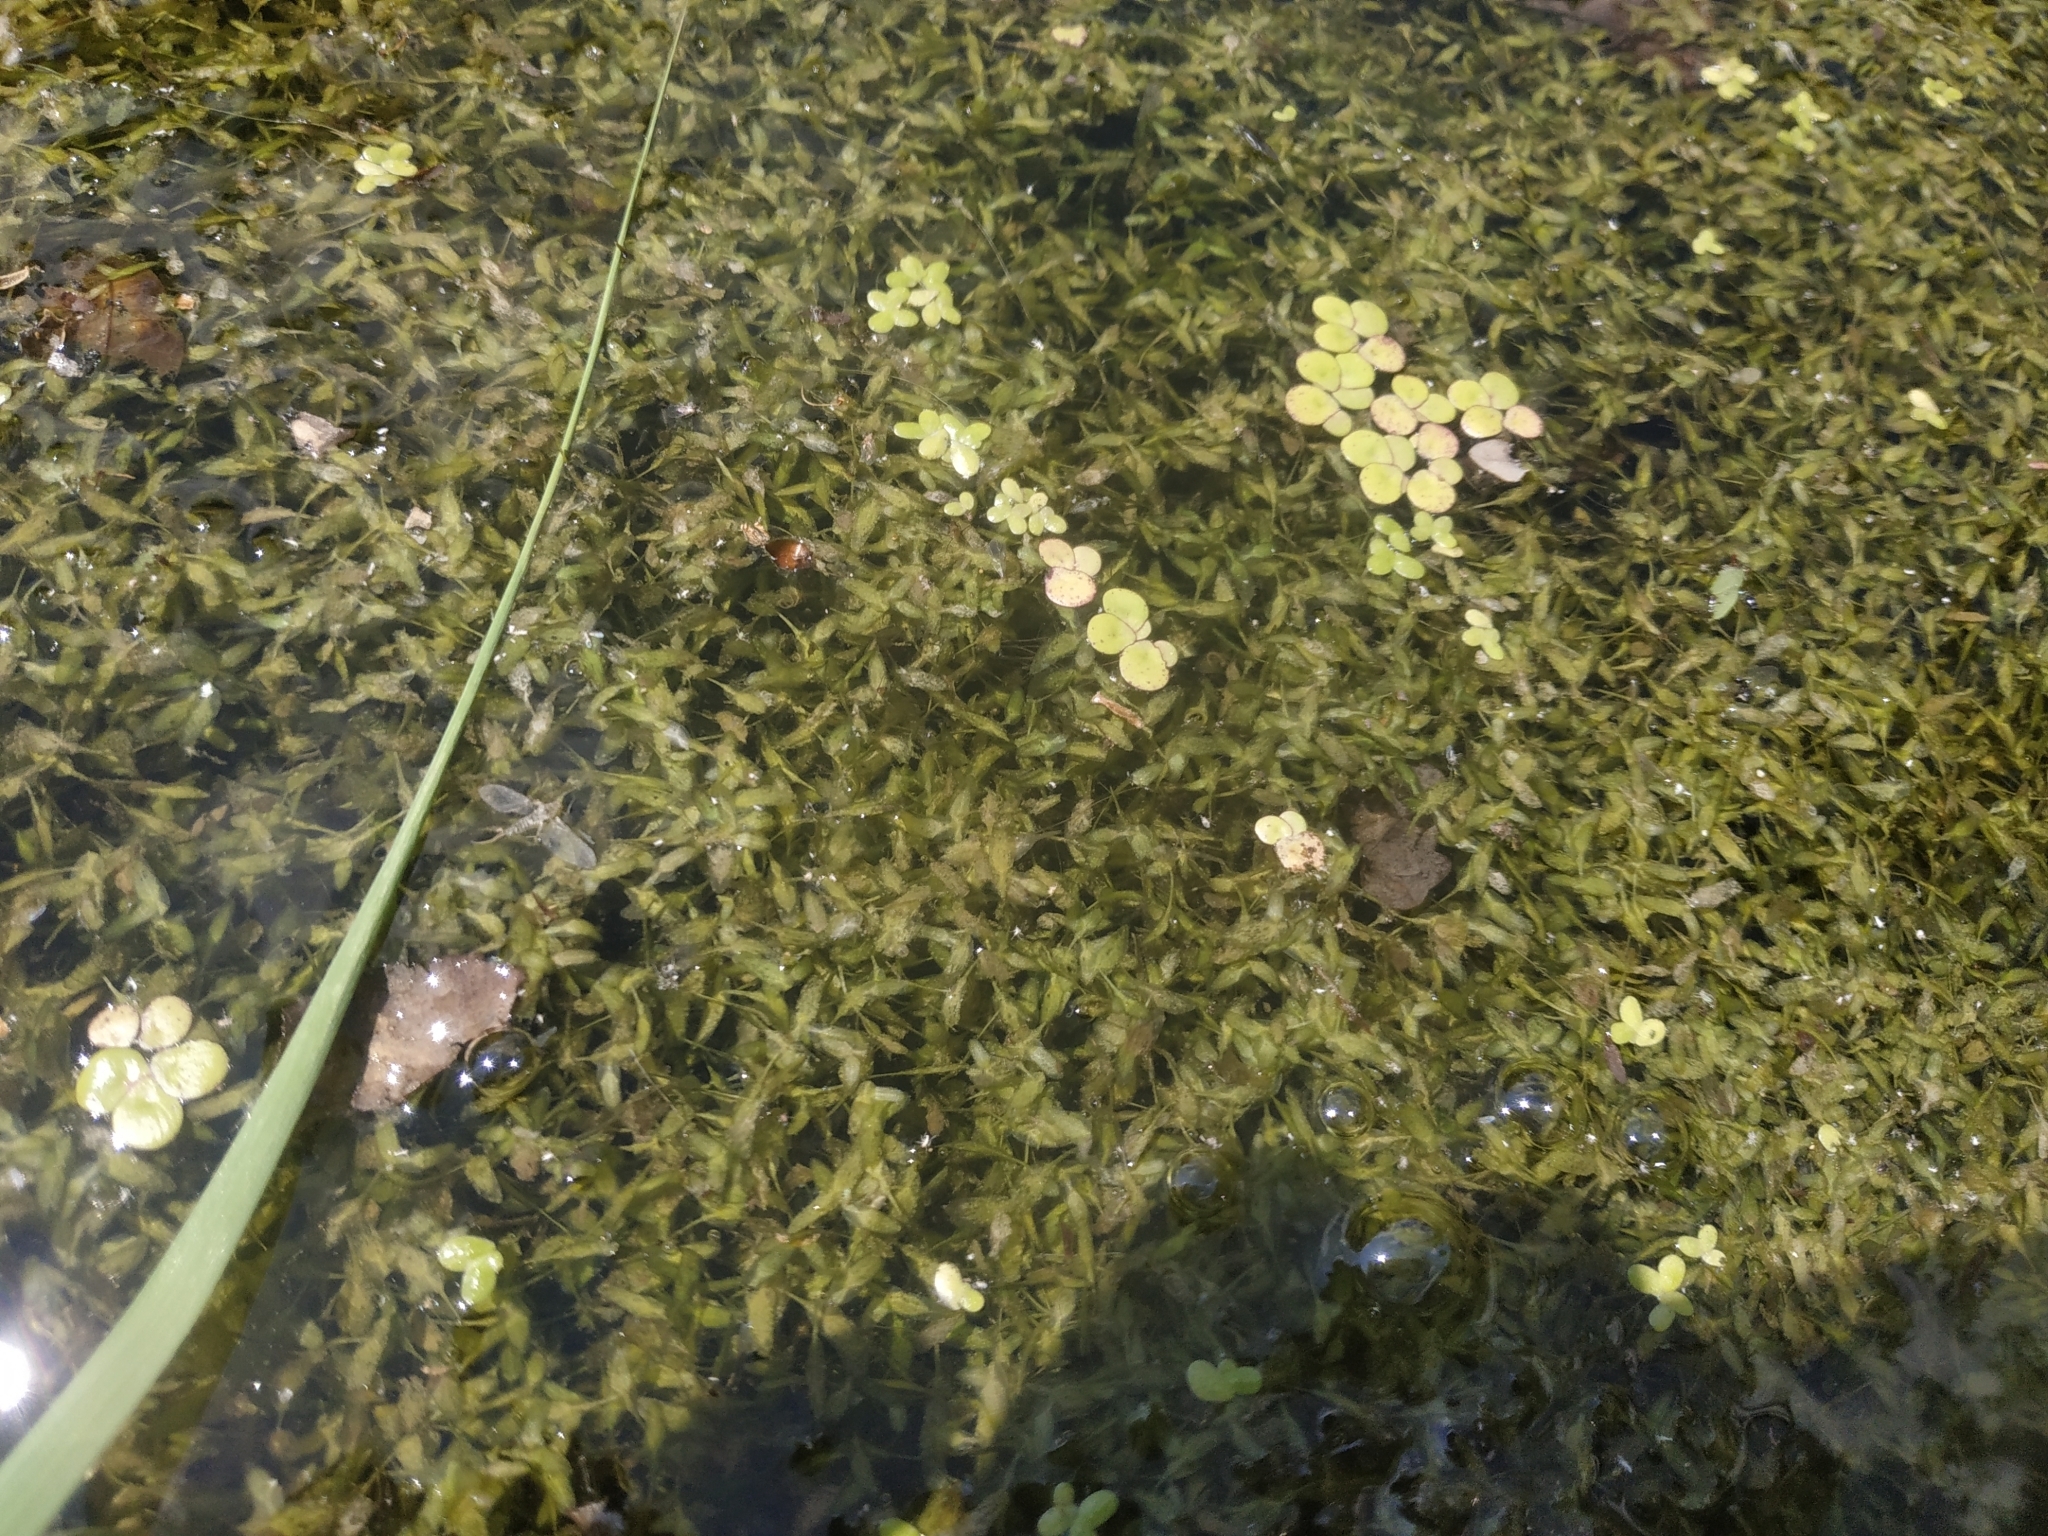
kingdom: Plantae
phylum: Tracheophyta
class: Liliopsida
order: Alismatales
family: Araceae
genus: Lemna
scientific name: Lemna trisulca
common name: Ivy-leaved duckweed
